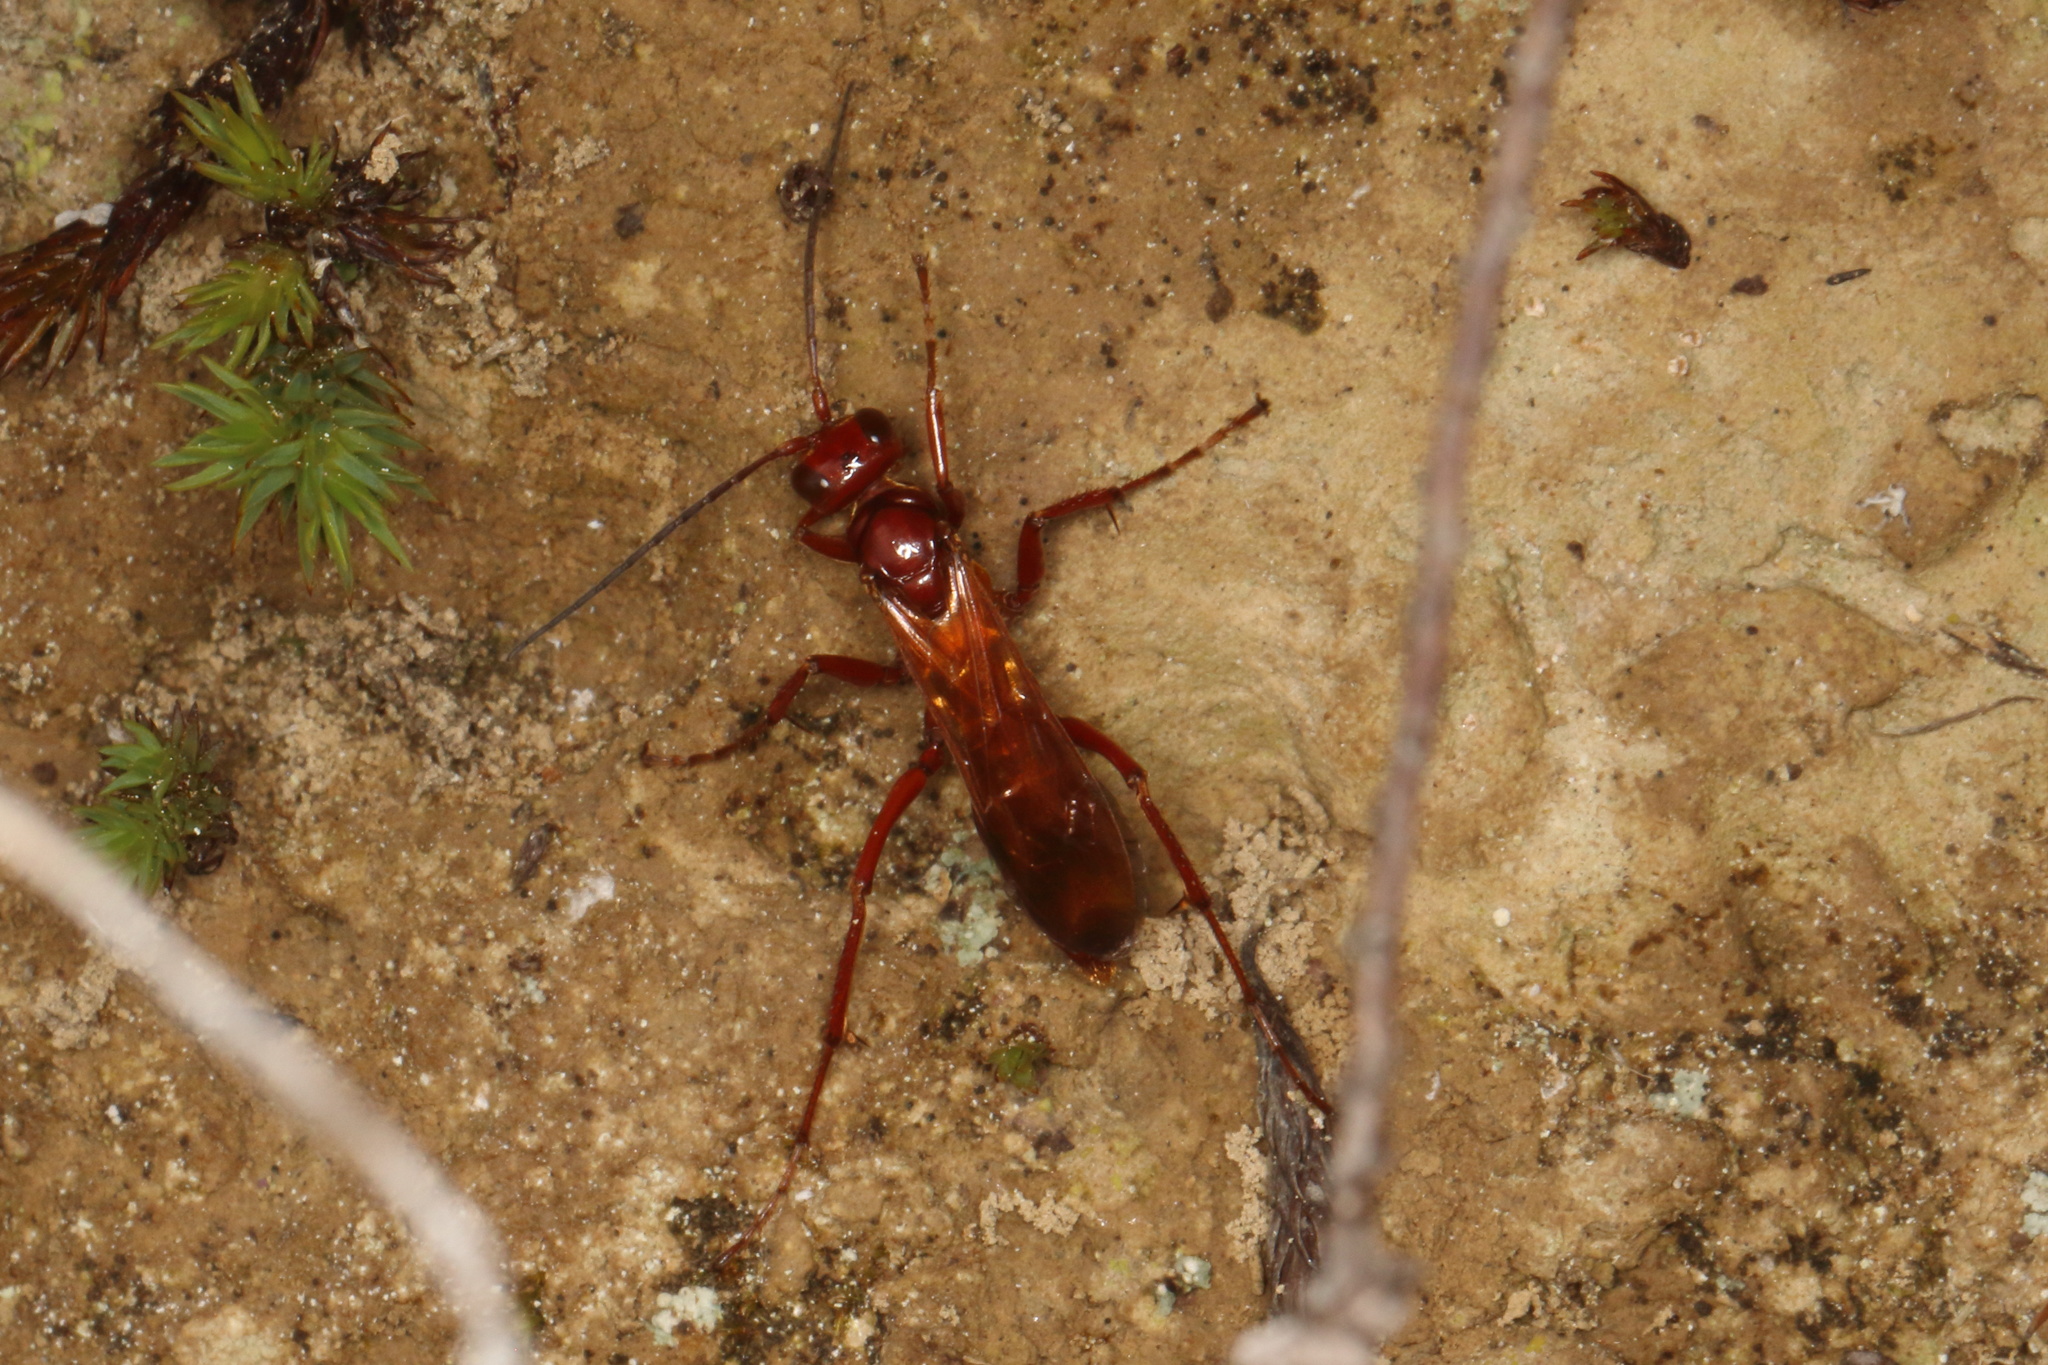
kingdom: Animalia
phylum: Arthropoda
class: Insecta
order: Hymenoptera
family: Pompilidae
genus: Sphictostethus
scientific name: Sphictostethus nitidus
